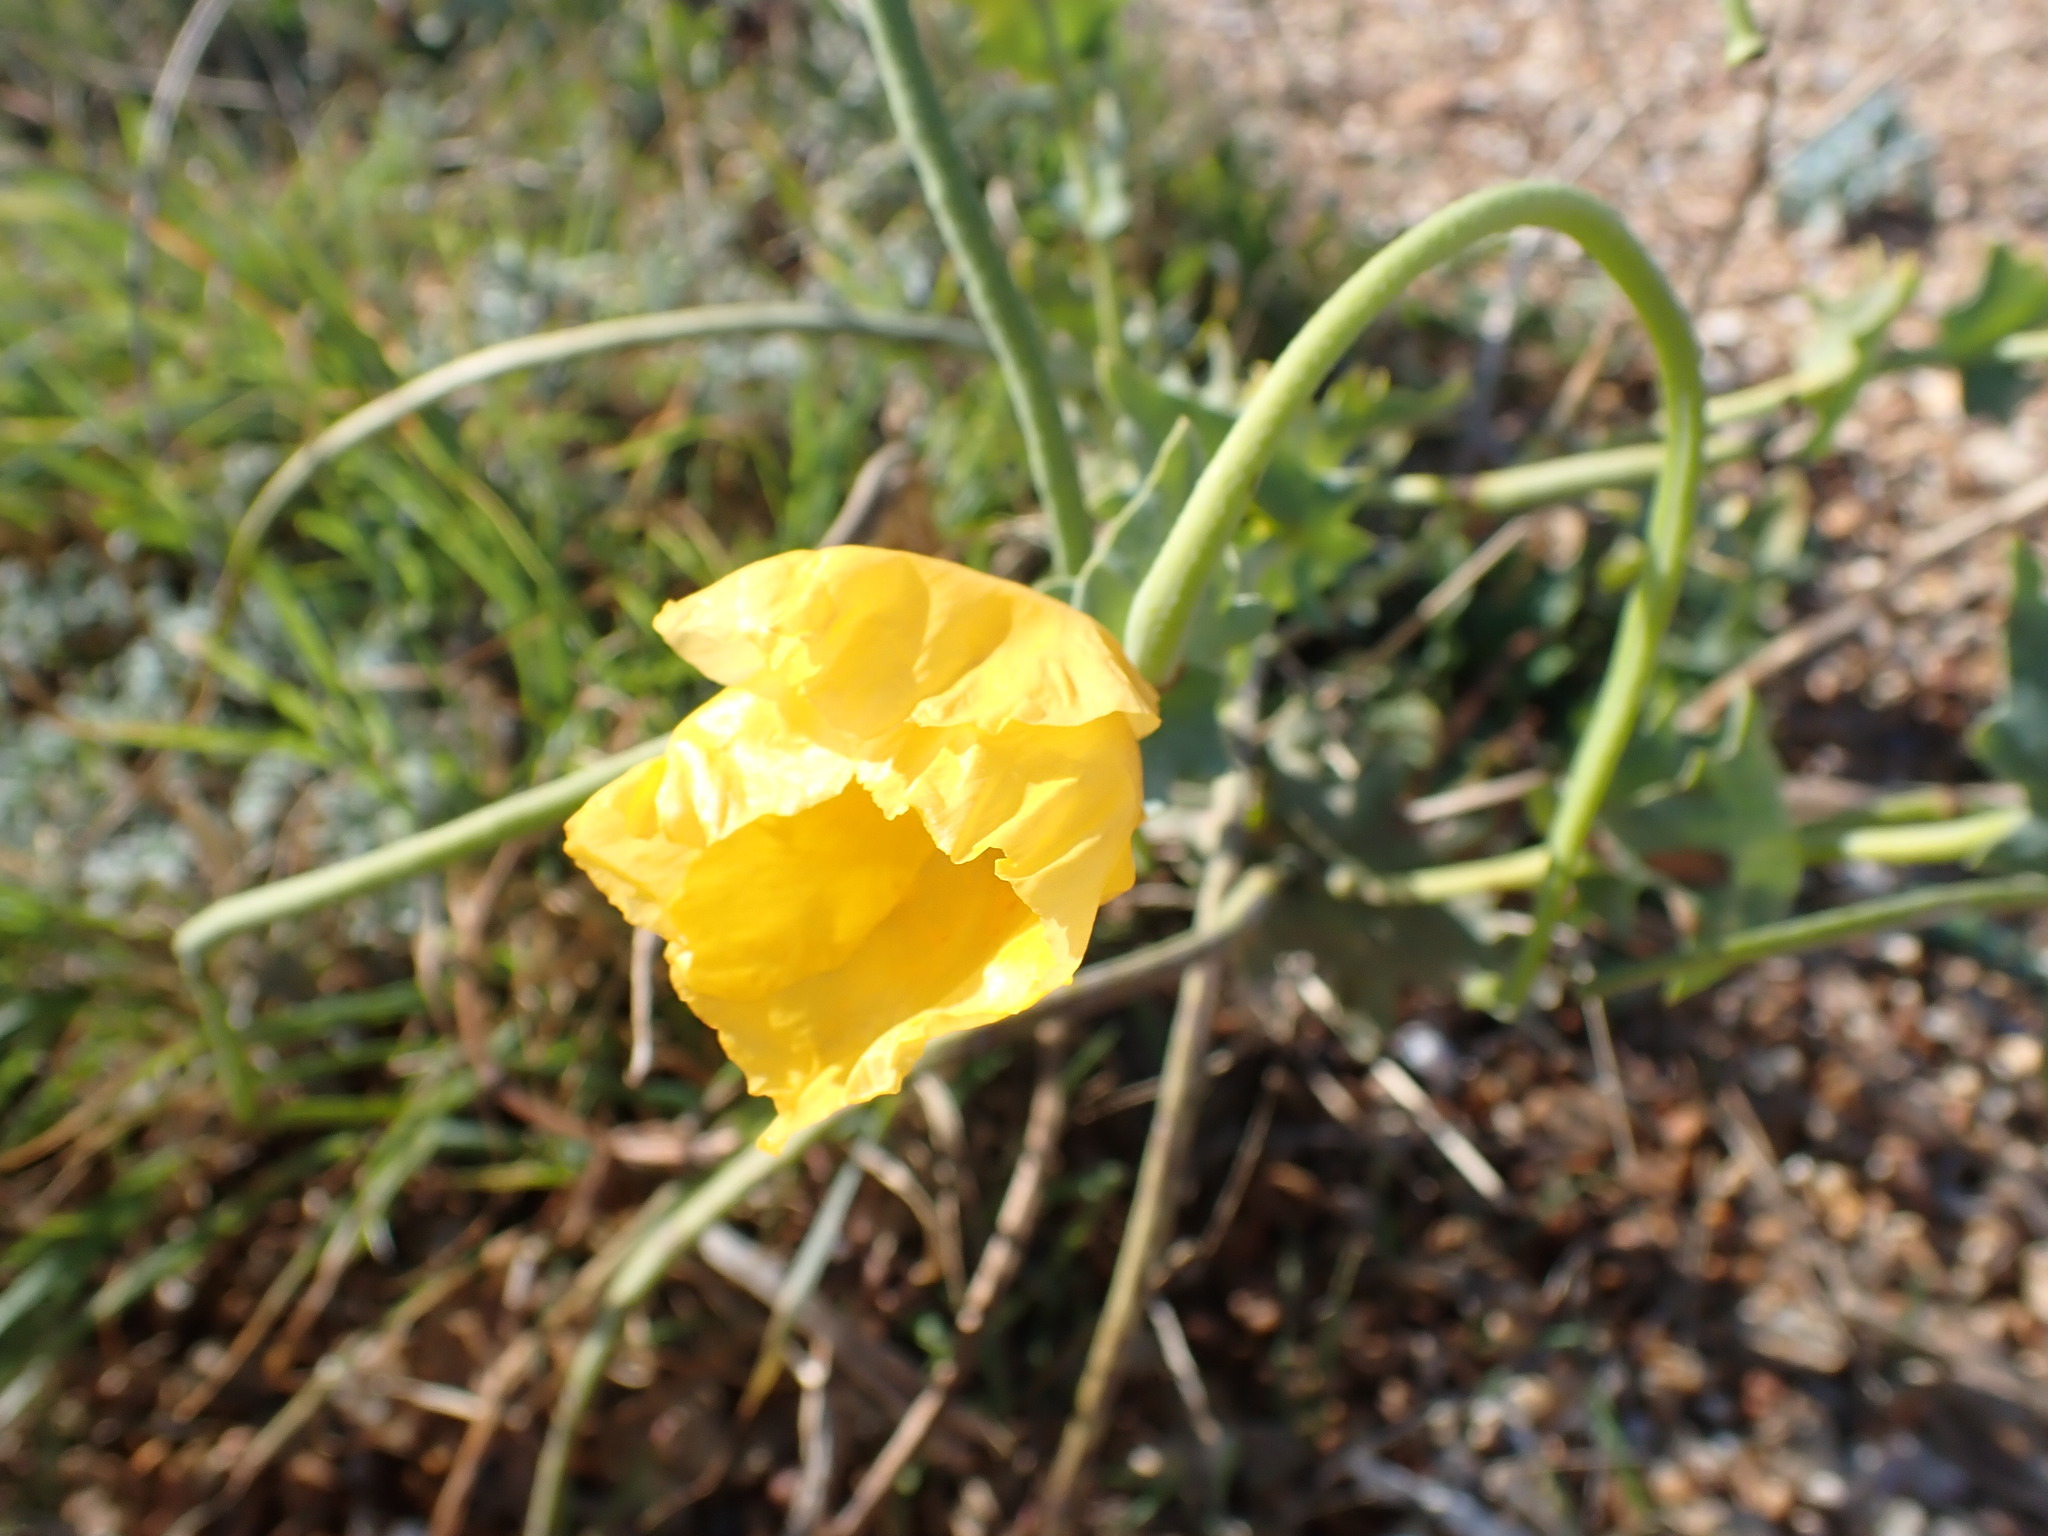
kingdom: Plantae
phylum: Tracheophyta
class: Magnoliopsida
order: Ranunculales
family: Papaveraceae
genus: Glaucium
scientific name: Glaucium flavum
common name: Yellow horned-poppy
